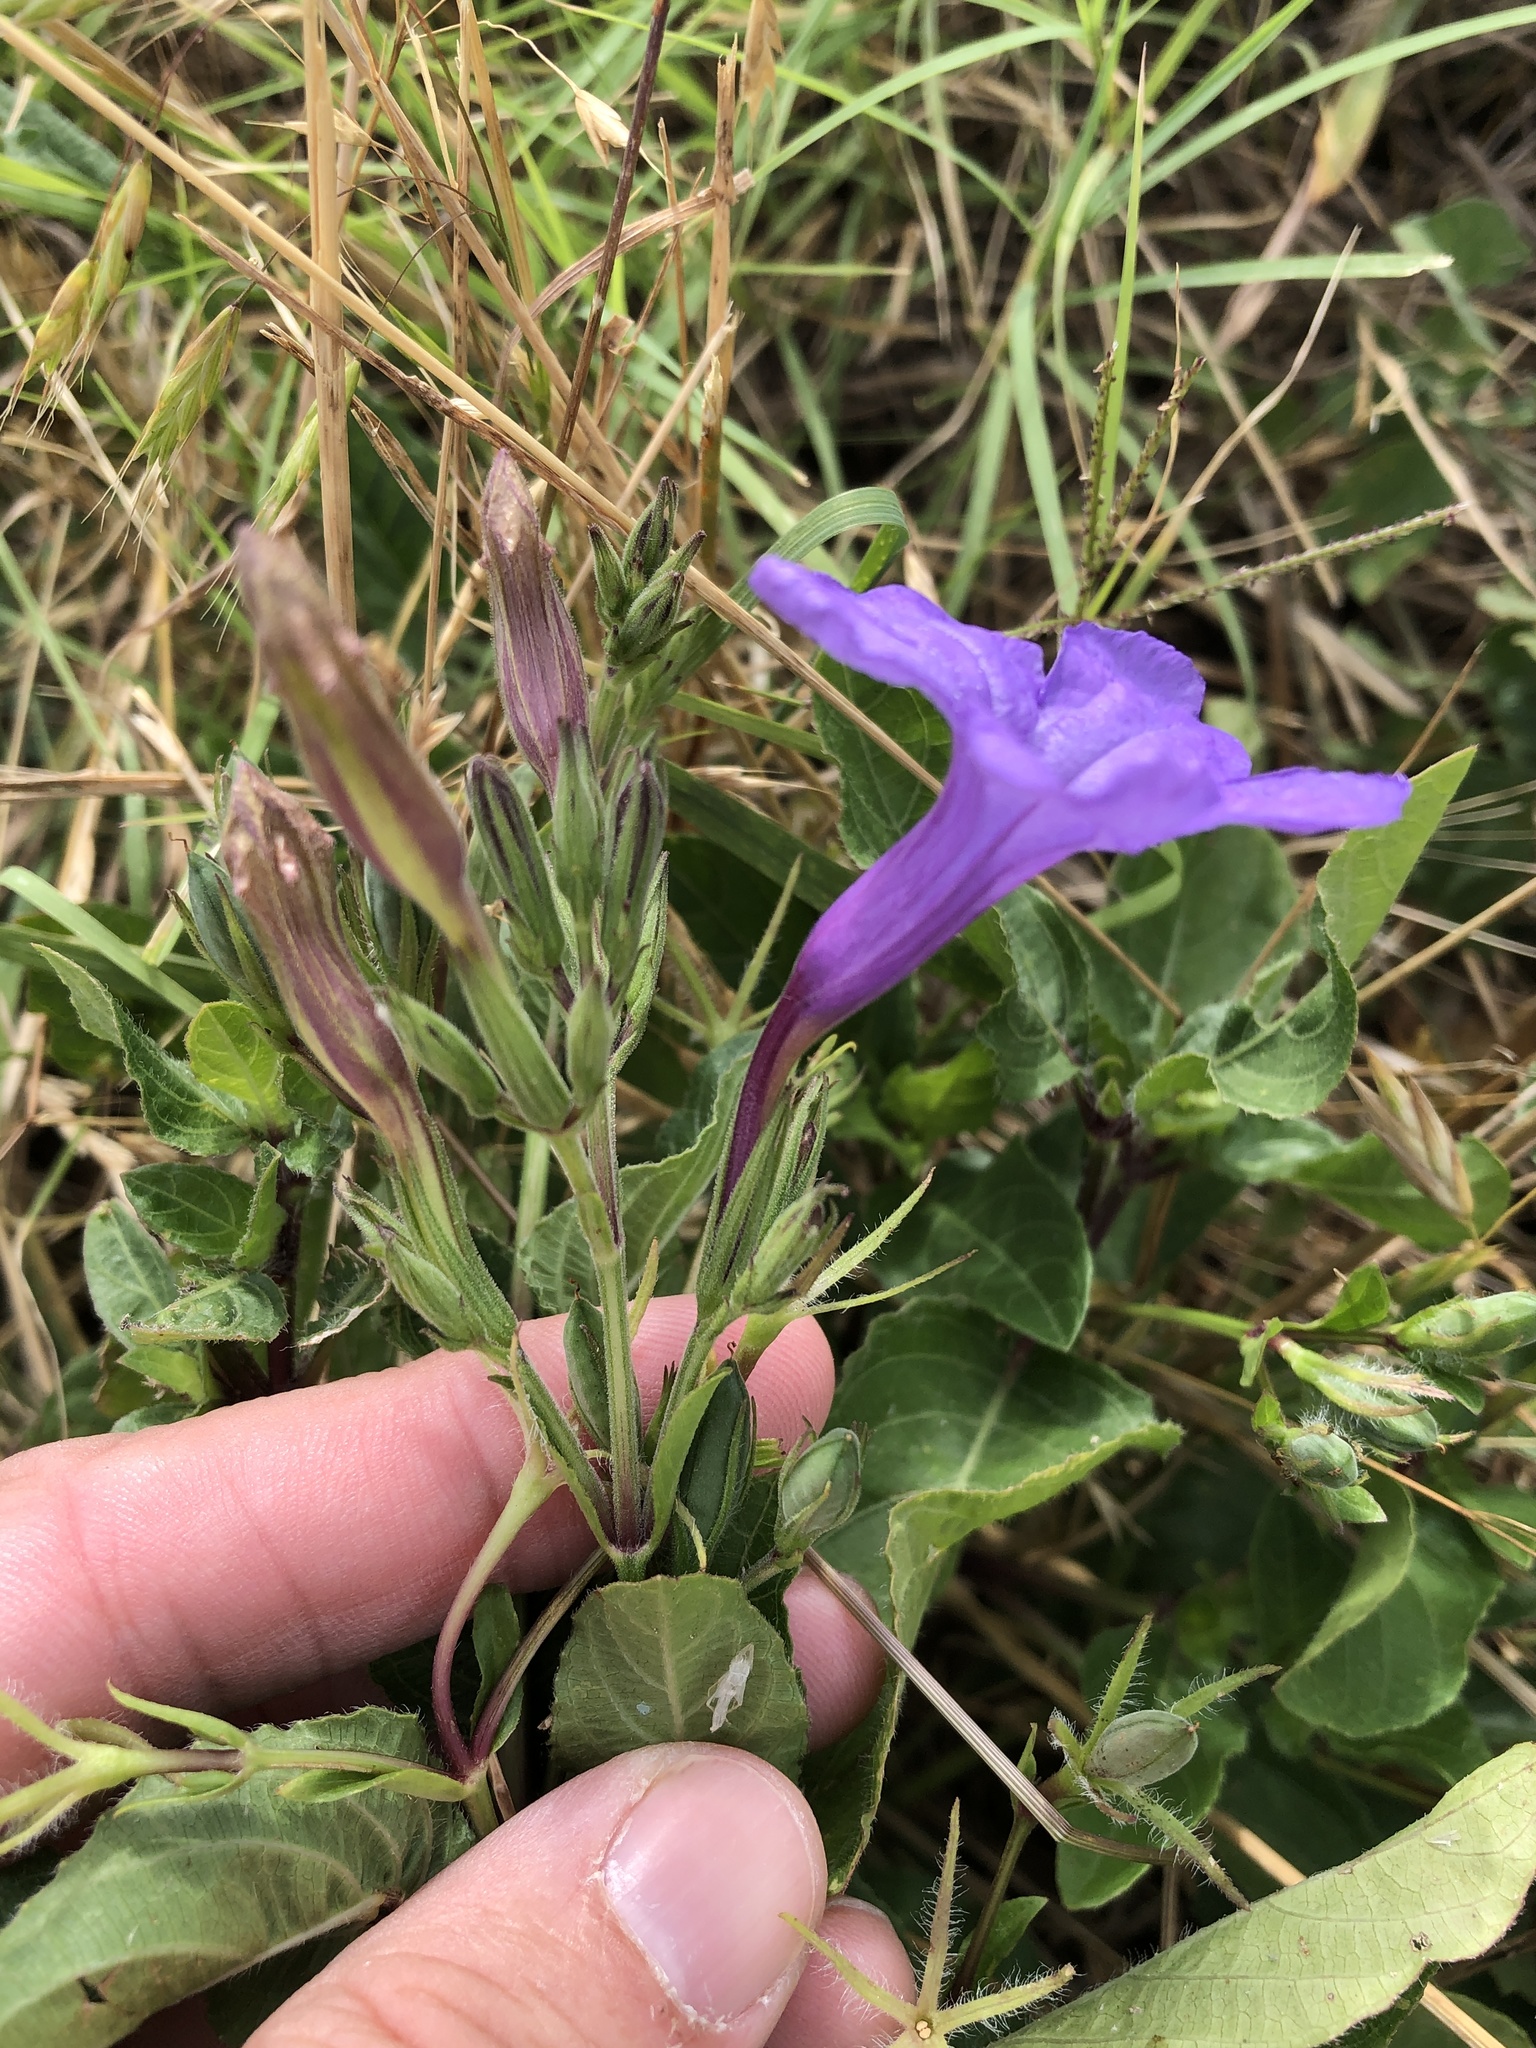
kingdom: Plantae
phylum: Tracheophyta
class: Magnoliopsida
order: Lamiales
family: Acanthaceae
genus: Ruellia
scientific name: Ruellia ciliatiflora
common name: Hairyflower wild petunia
